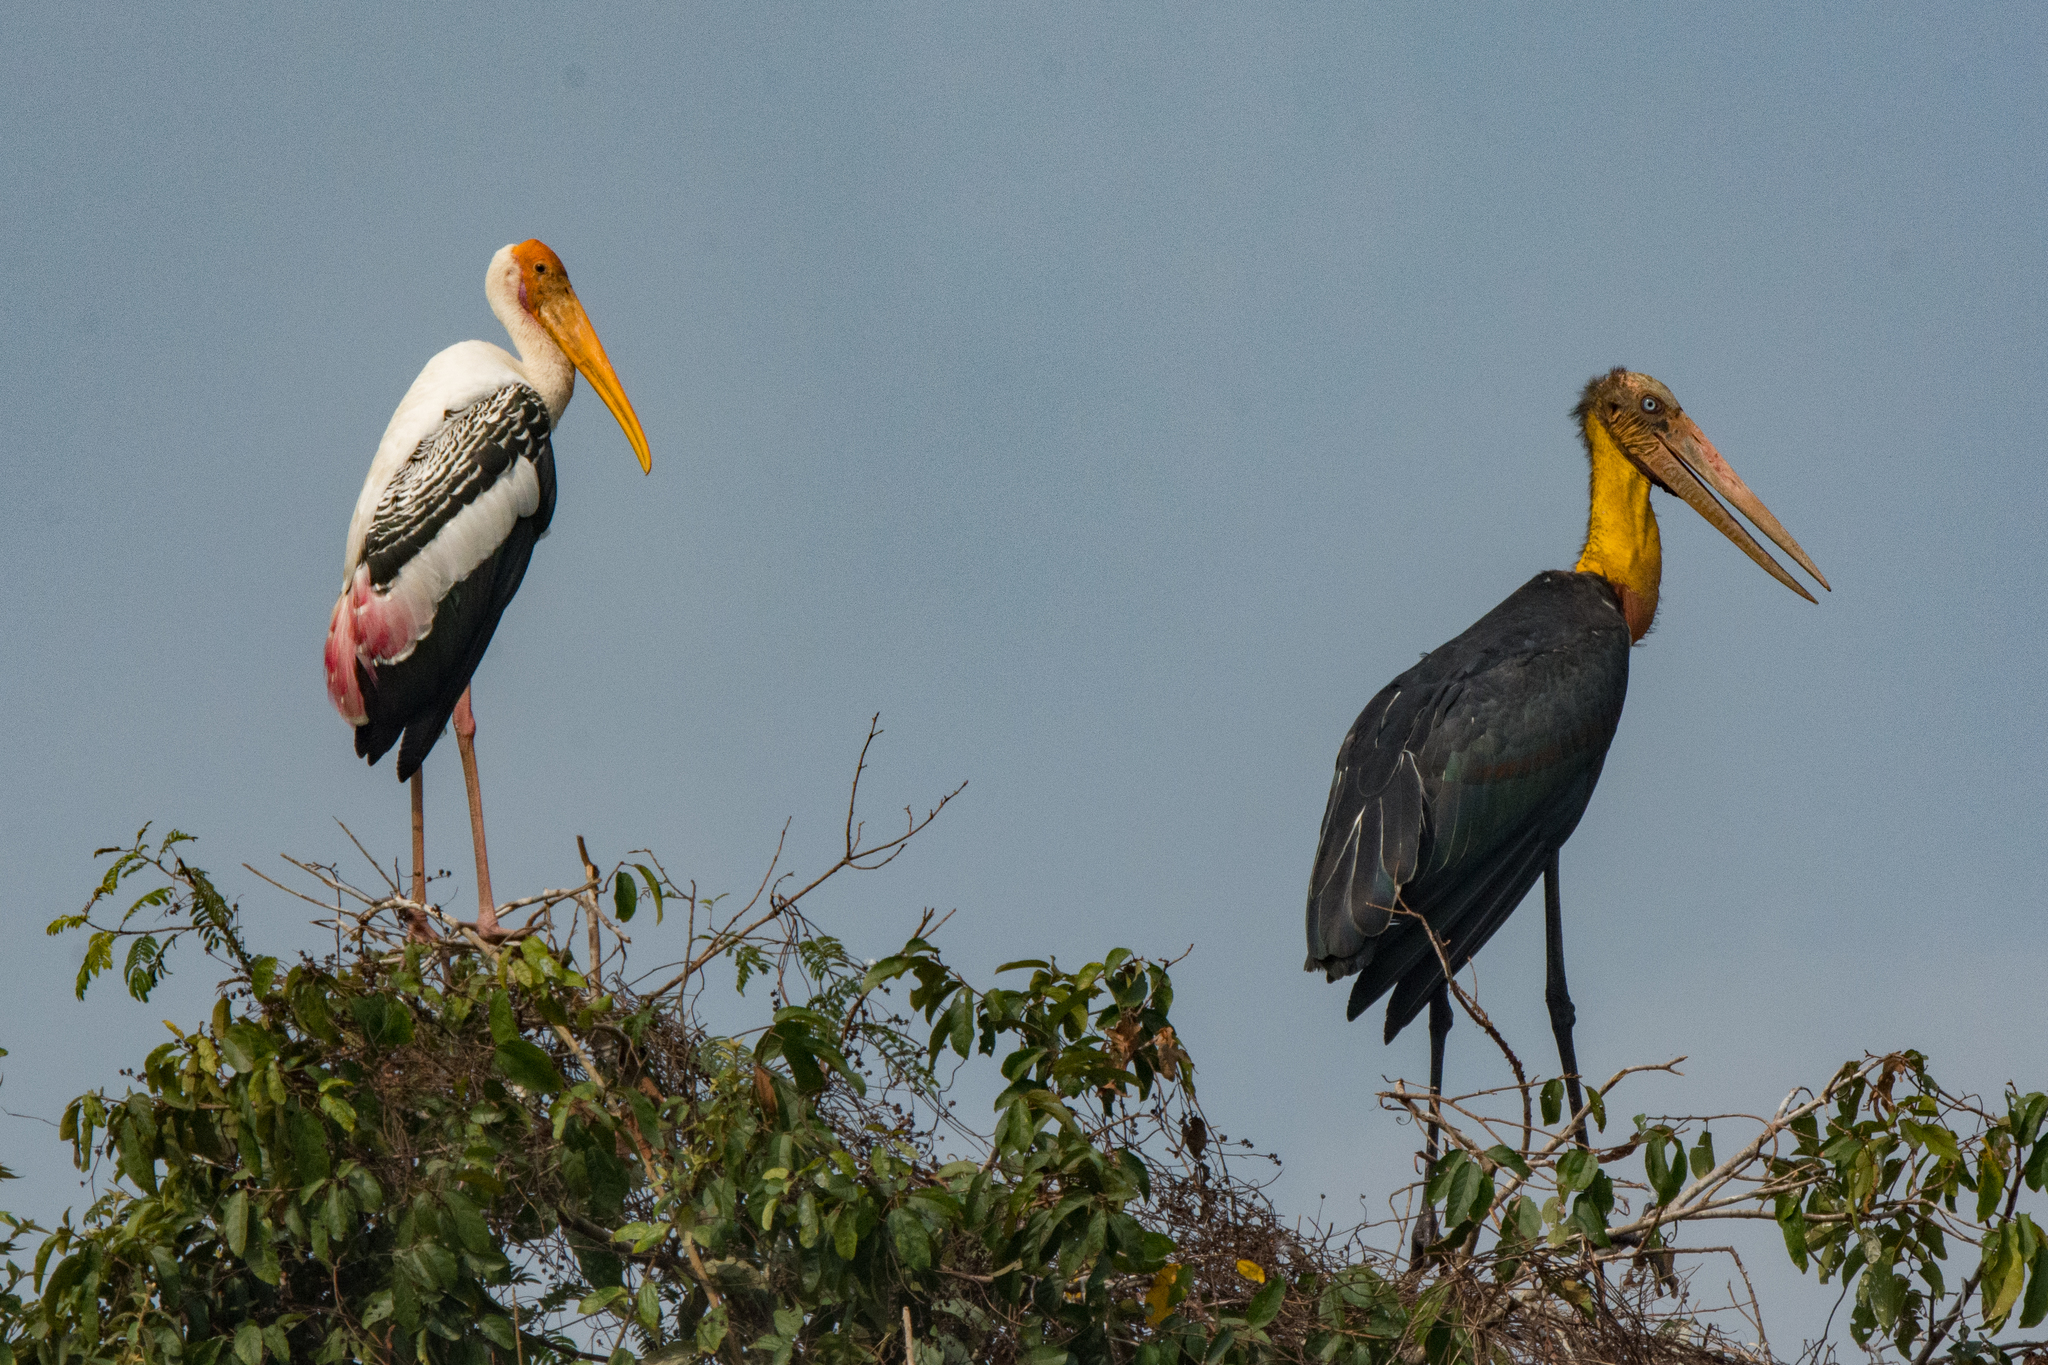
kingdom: Animalia
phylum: Chordata
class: Aves
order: Ciconiiformes
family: Ciconiidae
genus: Leptoptilos
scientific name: Leptoptilos javanicus
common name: Lesser adjutant
